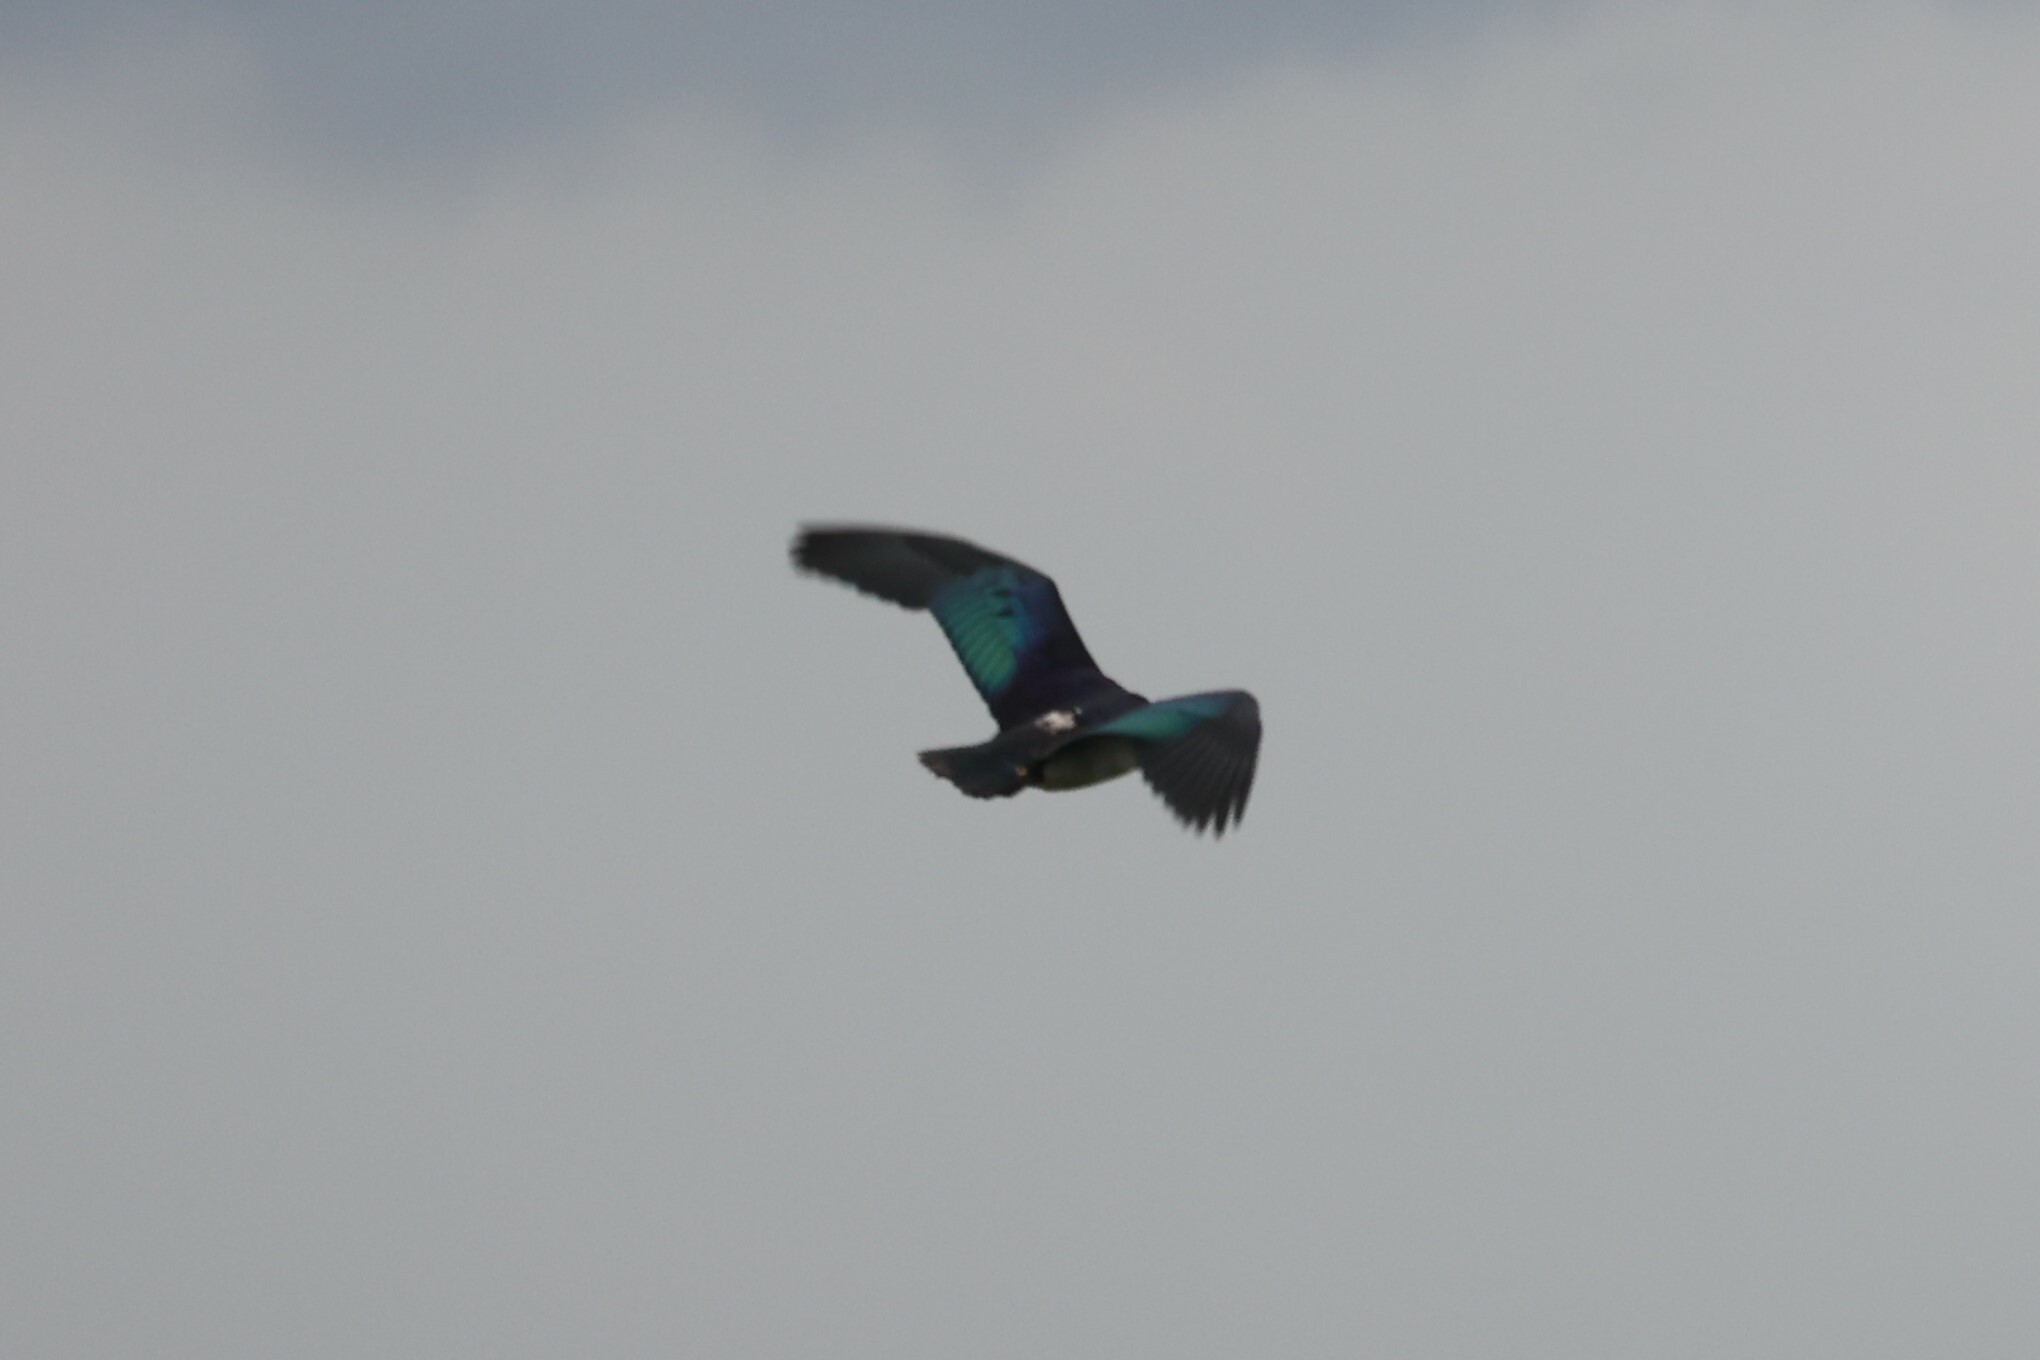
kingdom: Animalia
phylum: Chordata
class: Aves
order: Anseriformes
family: Anatidae
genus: Sarkidiornis
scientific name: Sarkidiornis melanotos
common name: Comb duck
